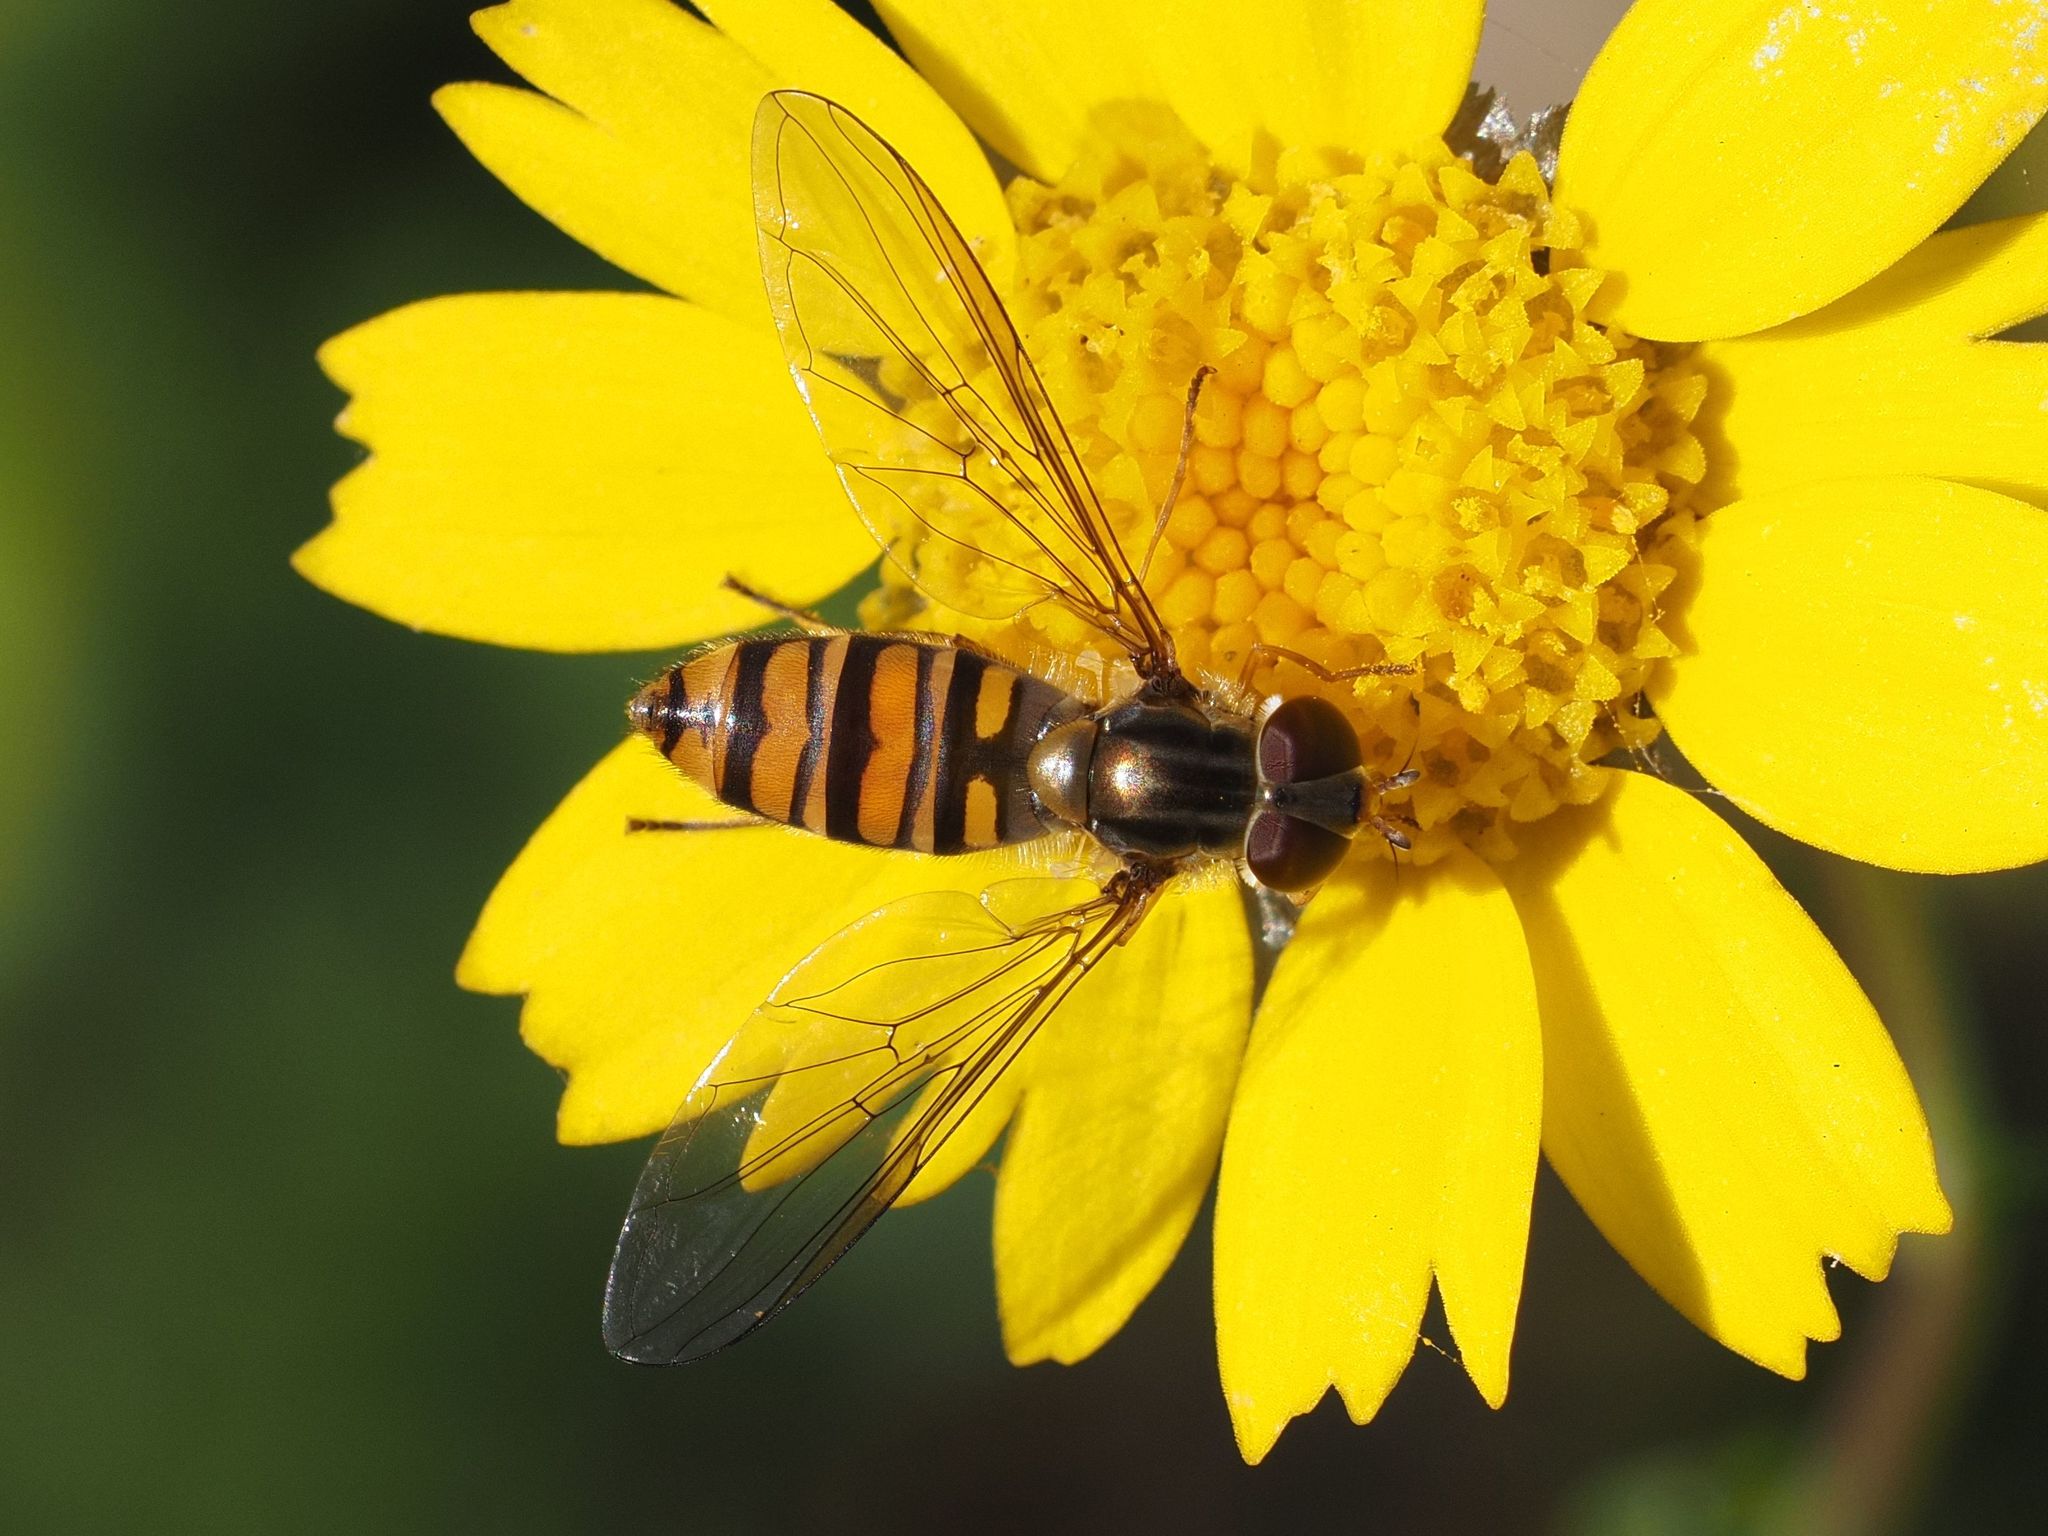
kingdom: Animalia
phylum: Arthropoda
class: Insecta
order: Diptera
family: Syrphidae
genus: Episyrphus
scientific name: Episyrphus balteatus
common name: Marmalade hoverfly
